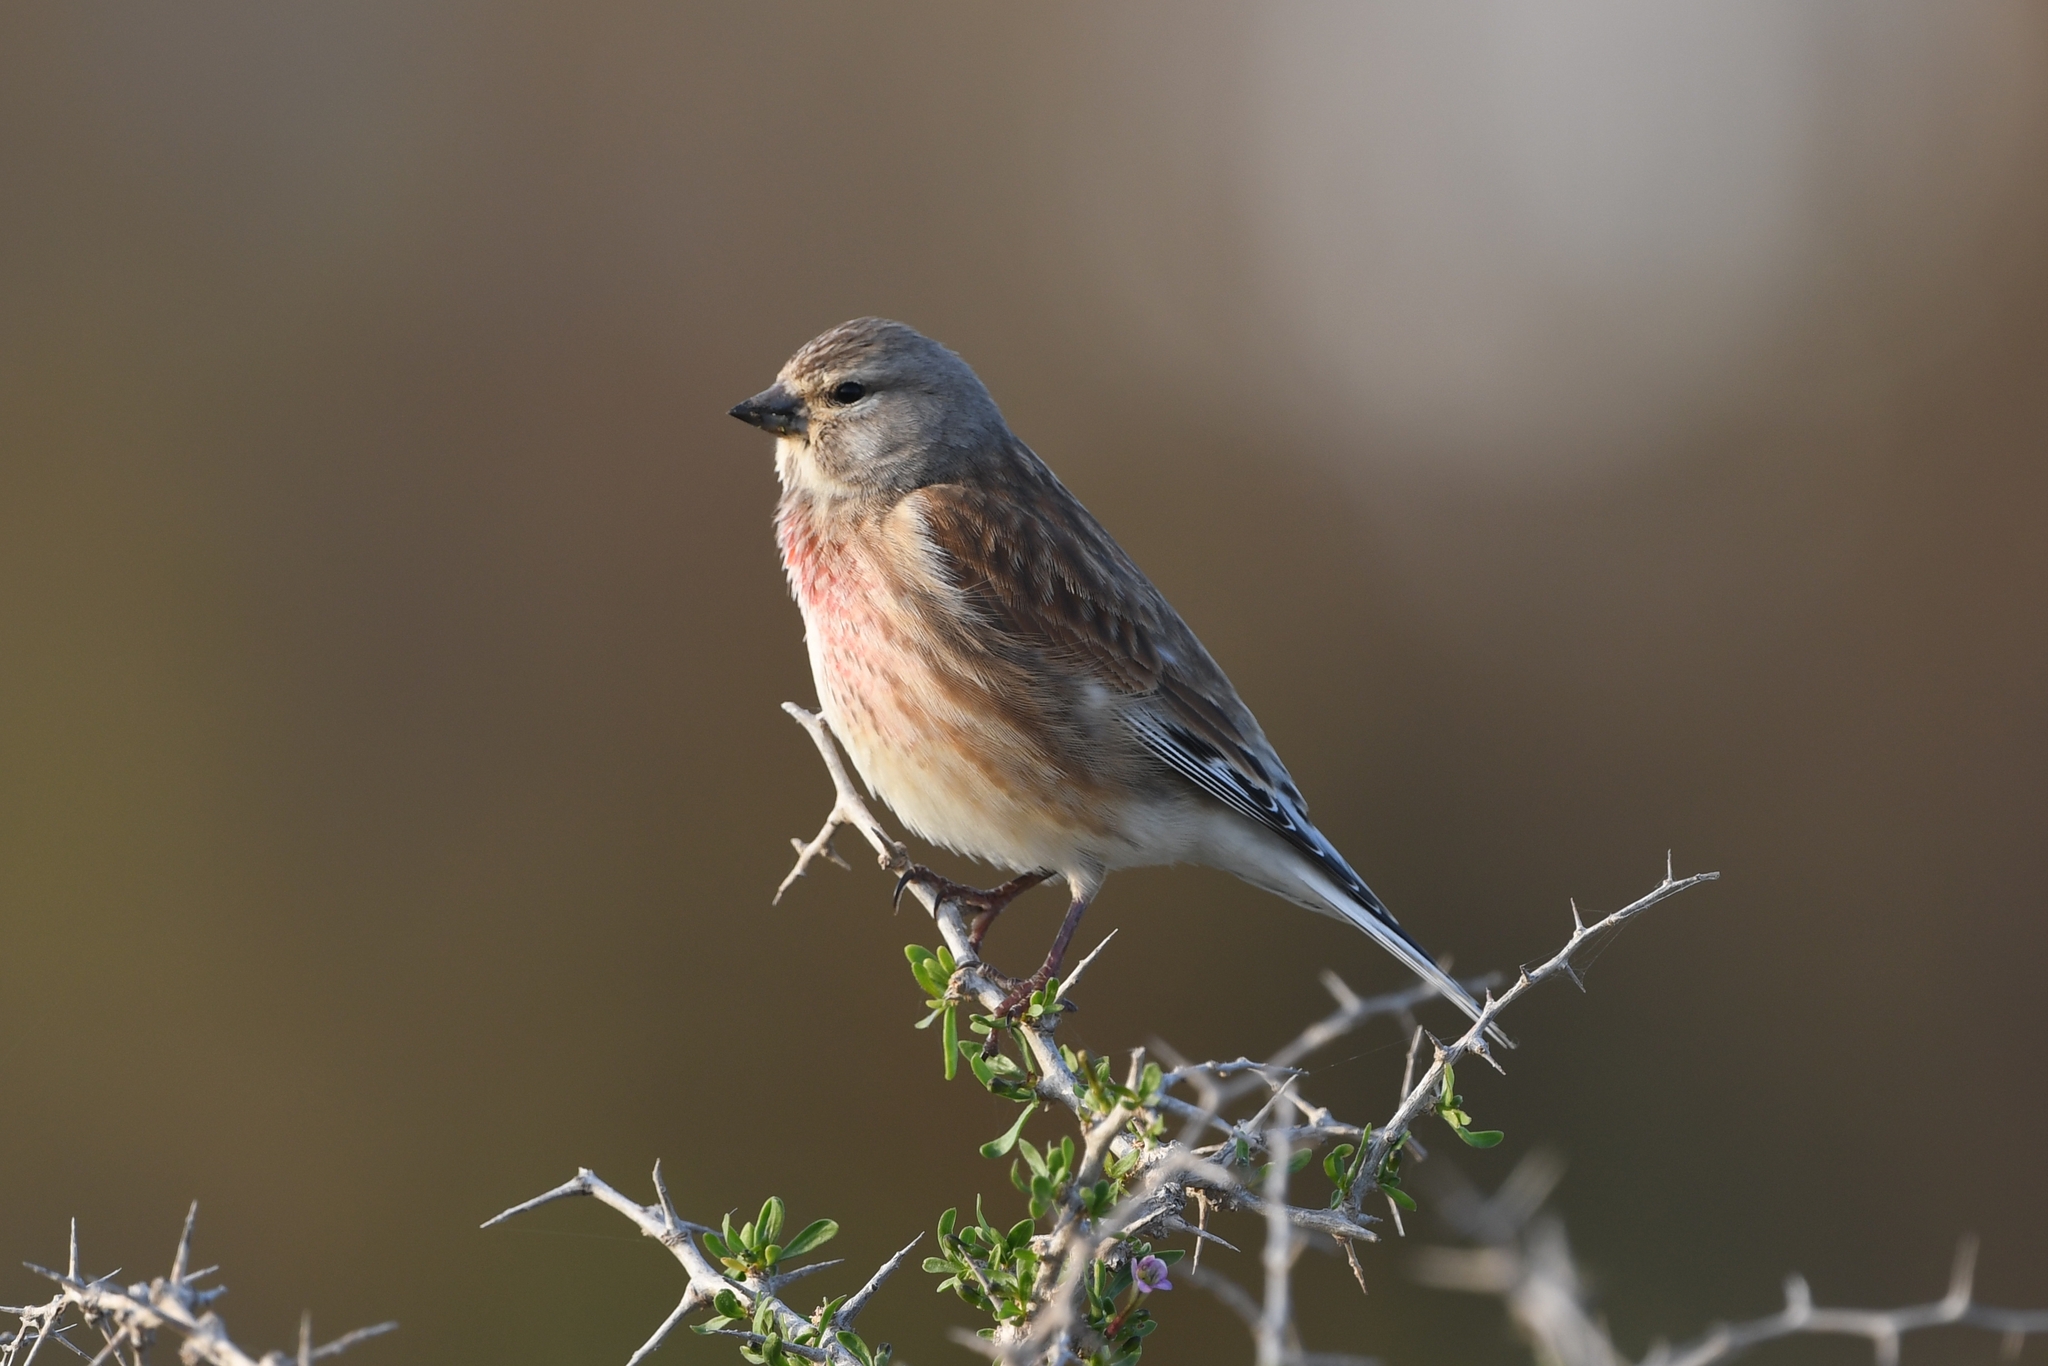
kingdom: Animalia
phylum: Chordata
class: Aves
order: Passeriformes
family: Fringillidae
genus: Linaria
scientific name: Linaria cannabina
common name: Common linnet
